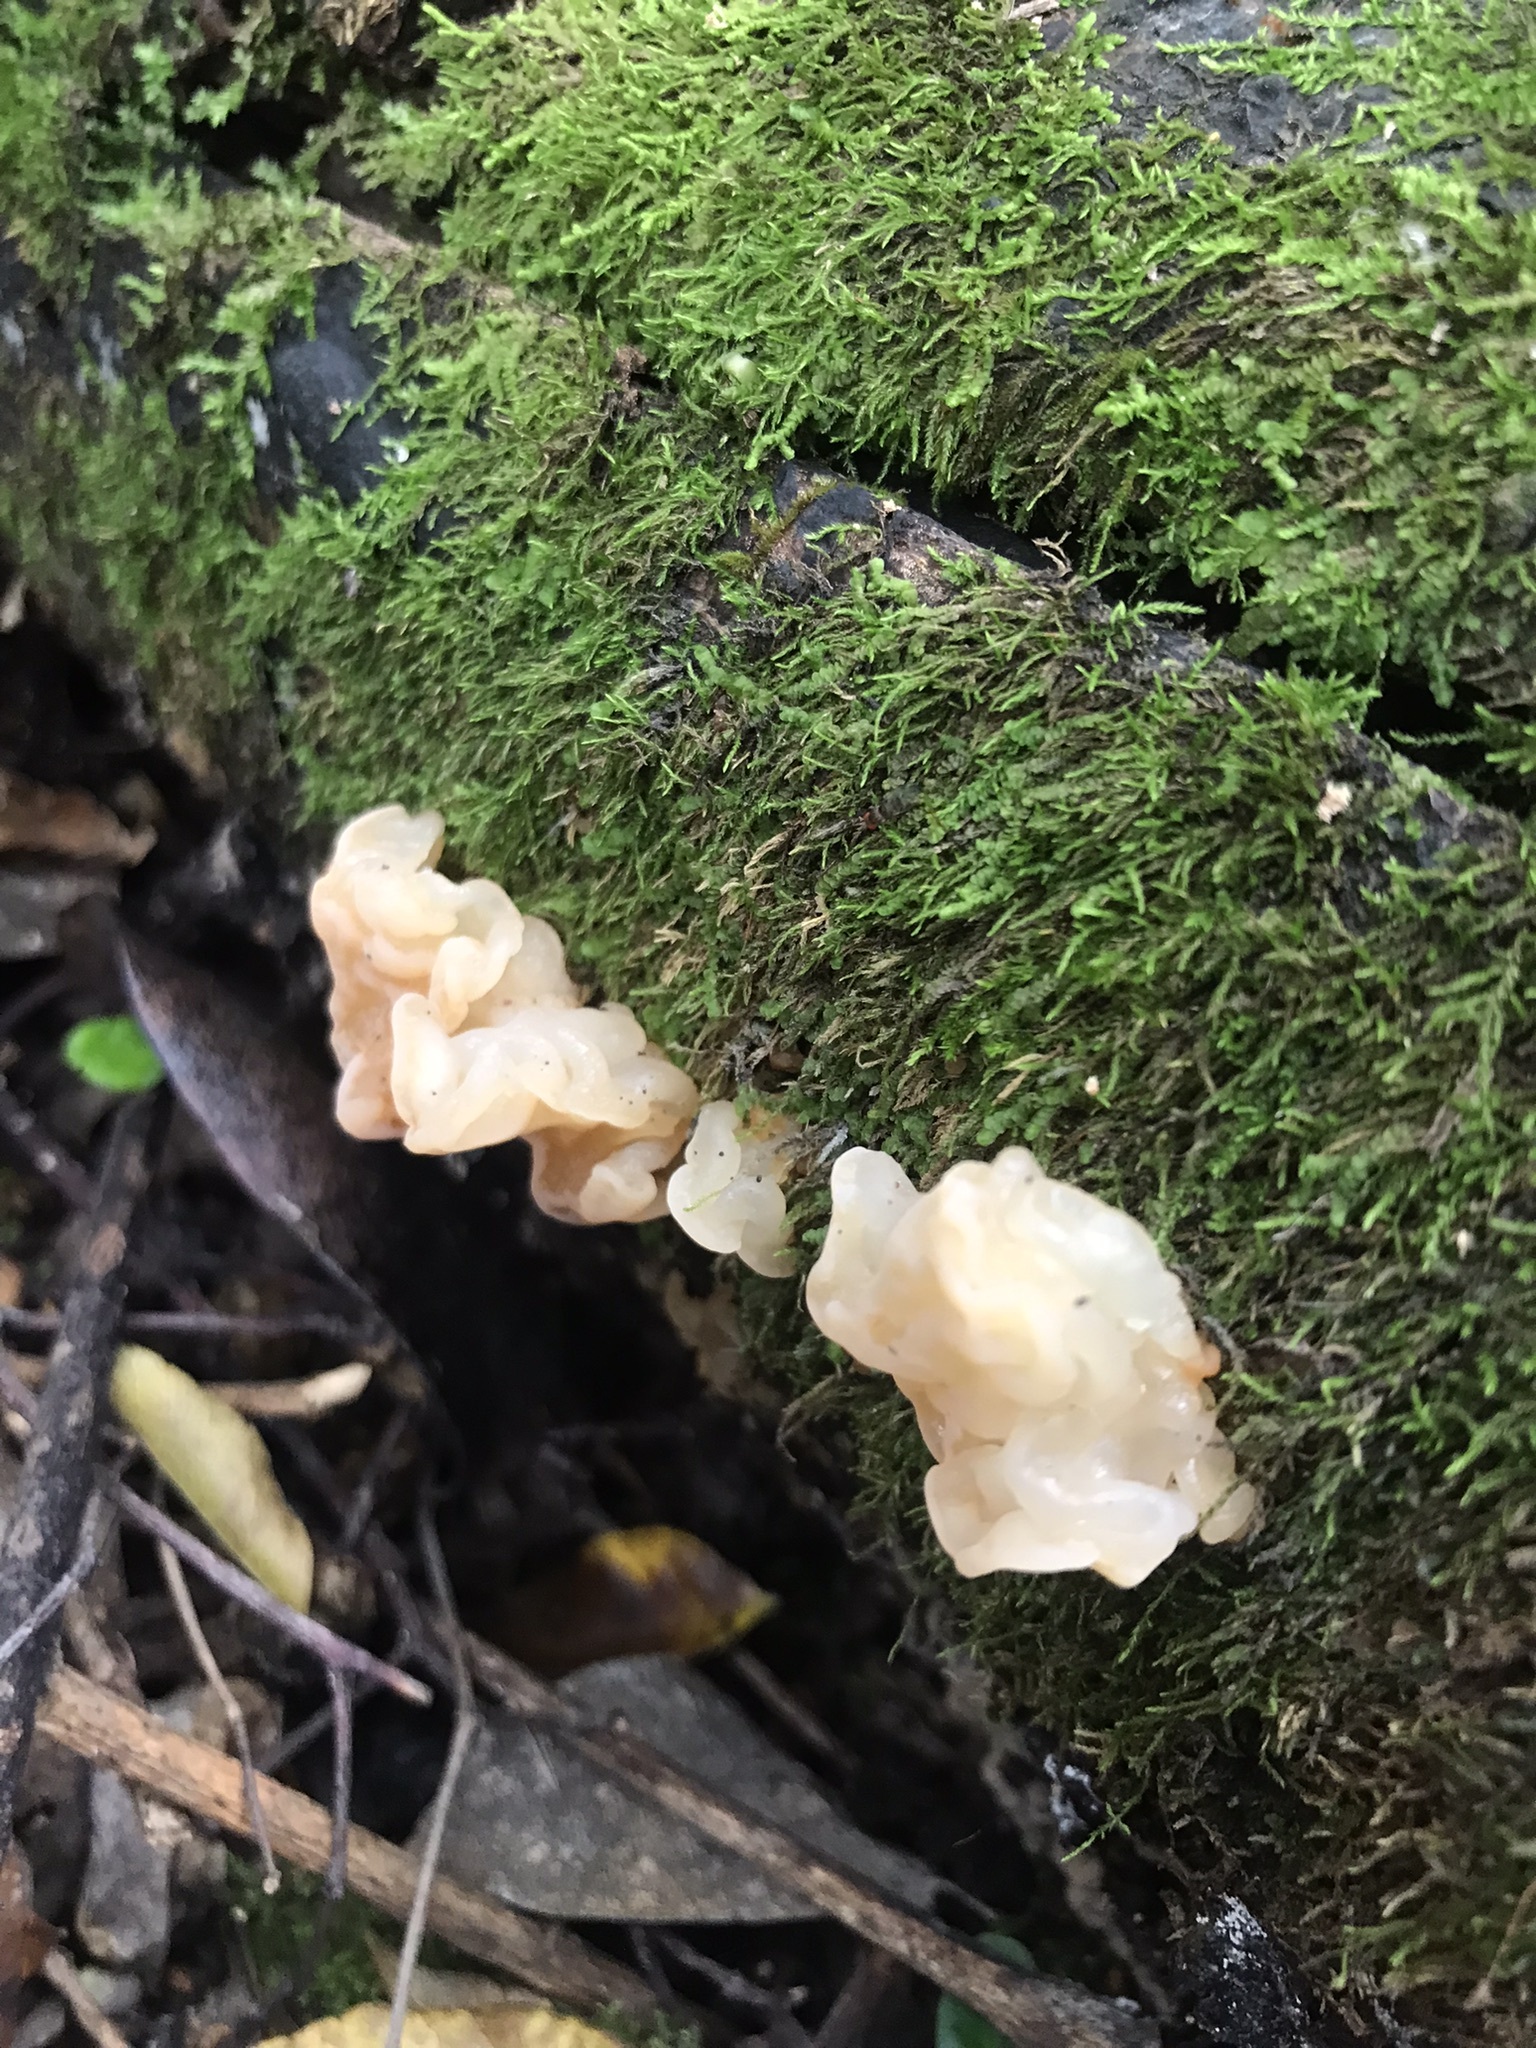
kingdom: Fungi
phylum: Basidiomycota
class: Agaricomycetes
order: Auriculariales
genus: Ductifera
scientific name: Ductifera pululahuana
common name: White jelly fungus
